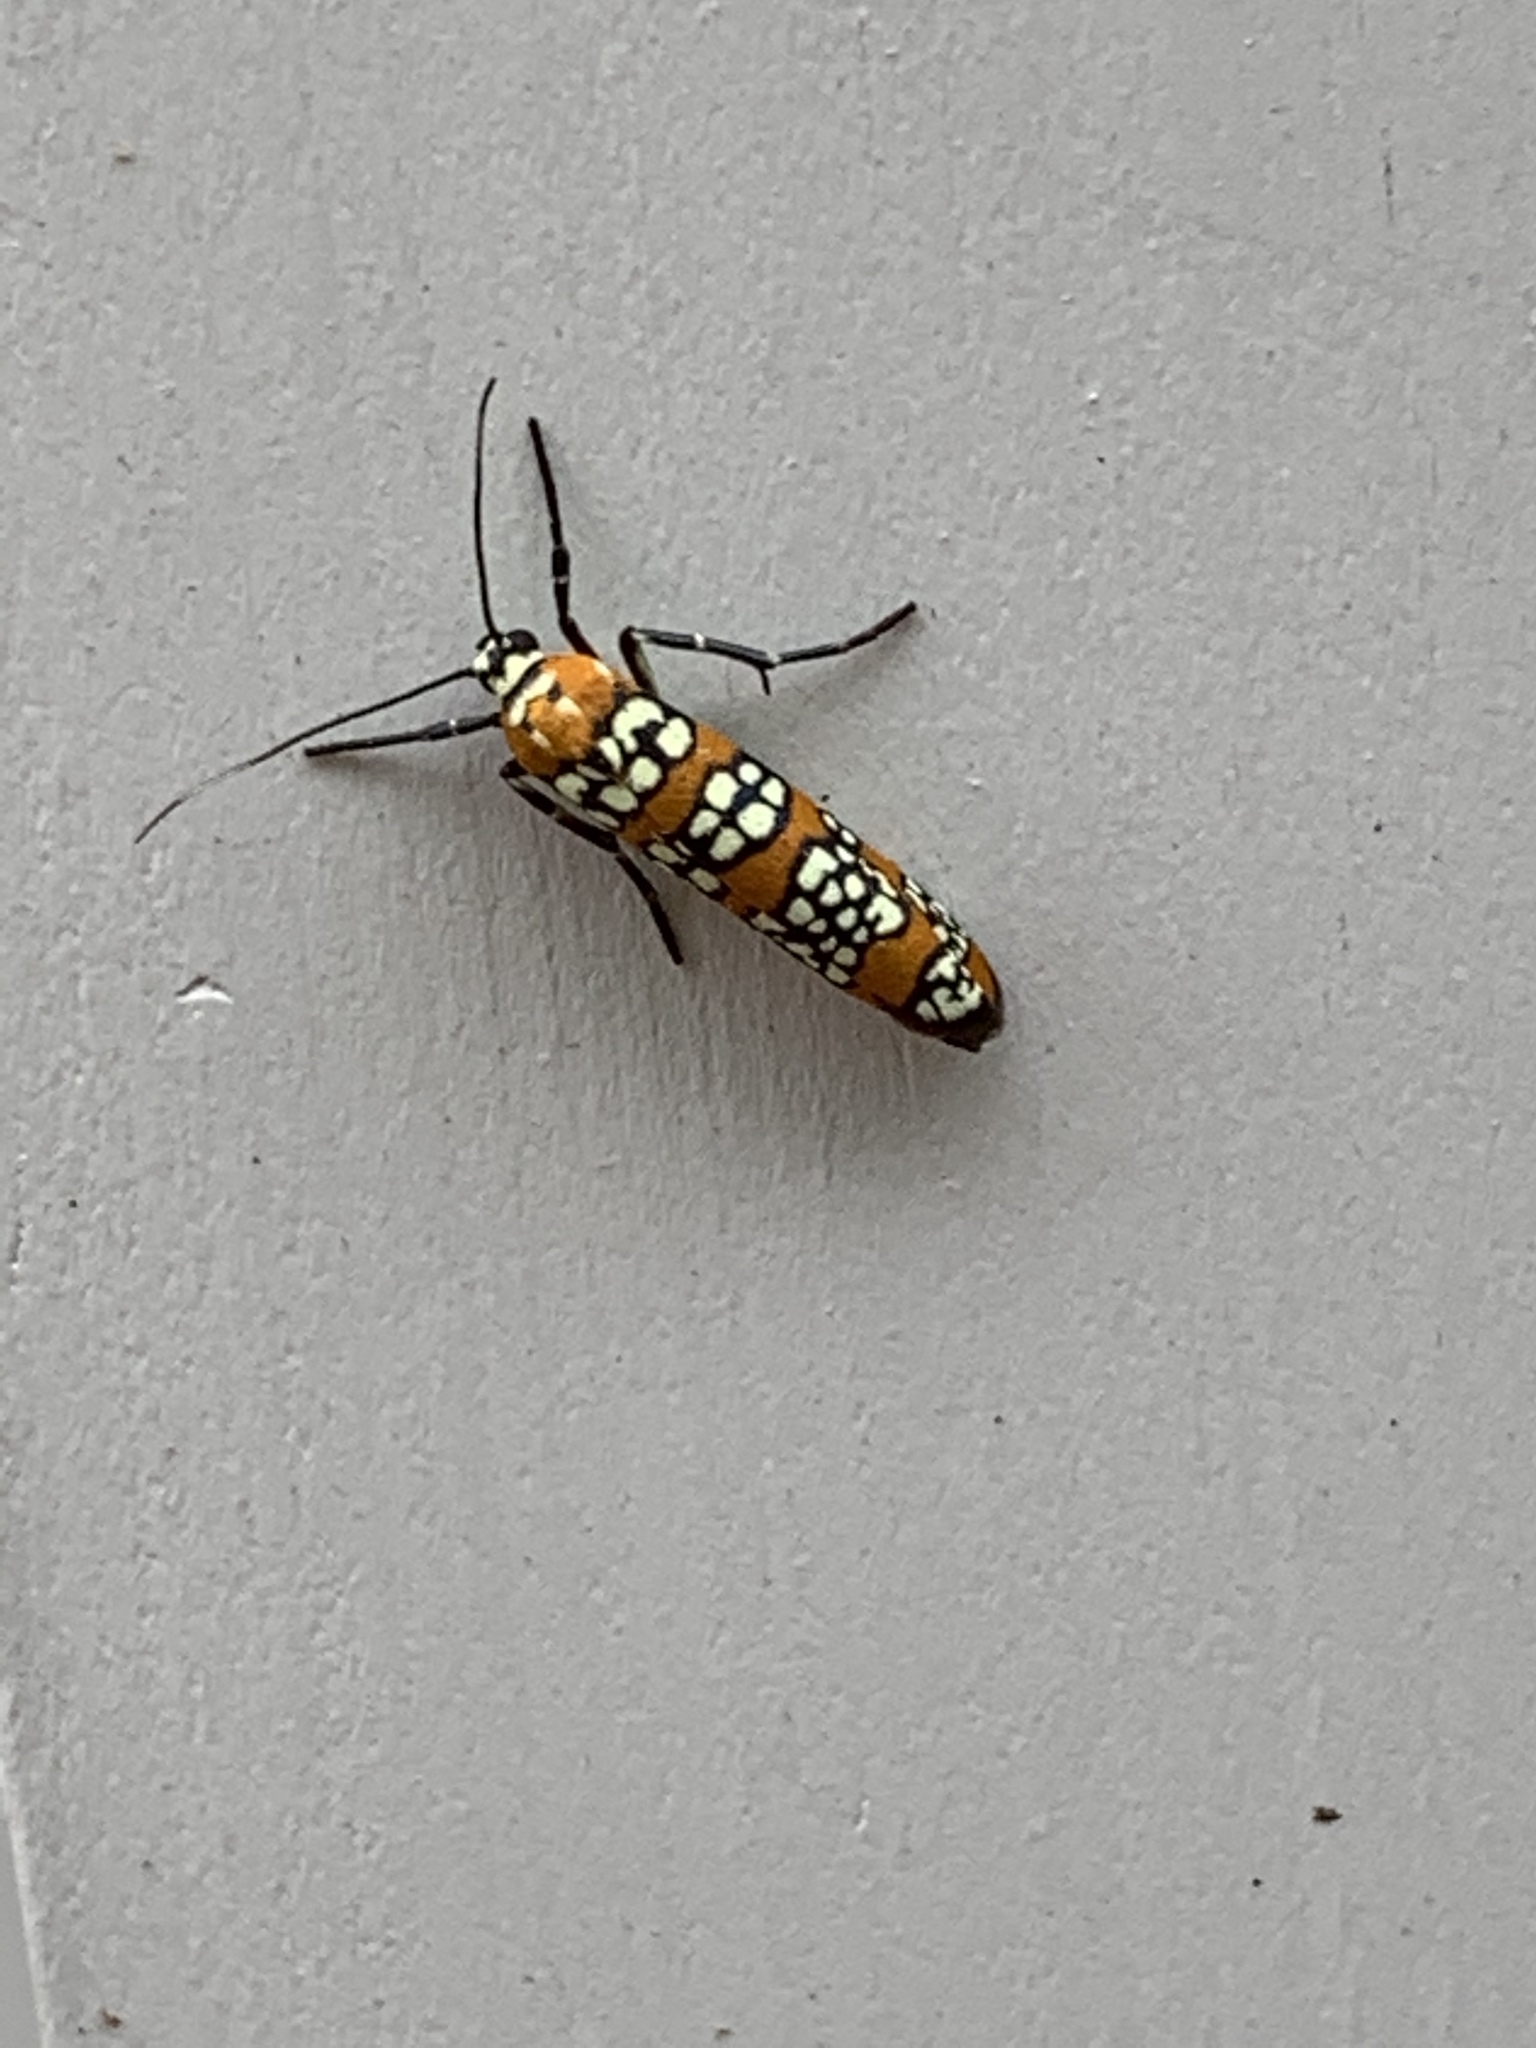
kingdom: Animalia
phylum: Arthropoda
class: Insecta
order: Lepidoptera
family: Attevidae
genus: Atteva
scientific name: Atteva punctella
